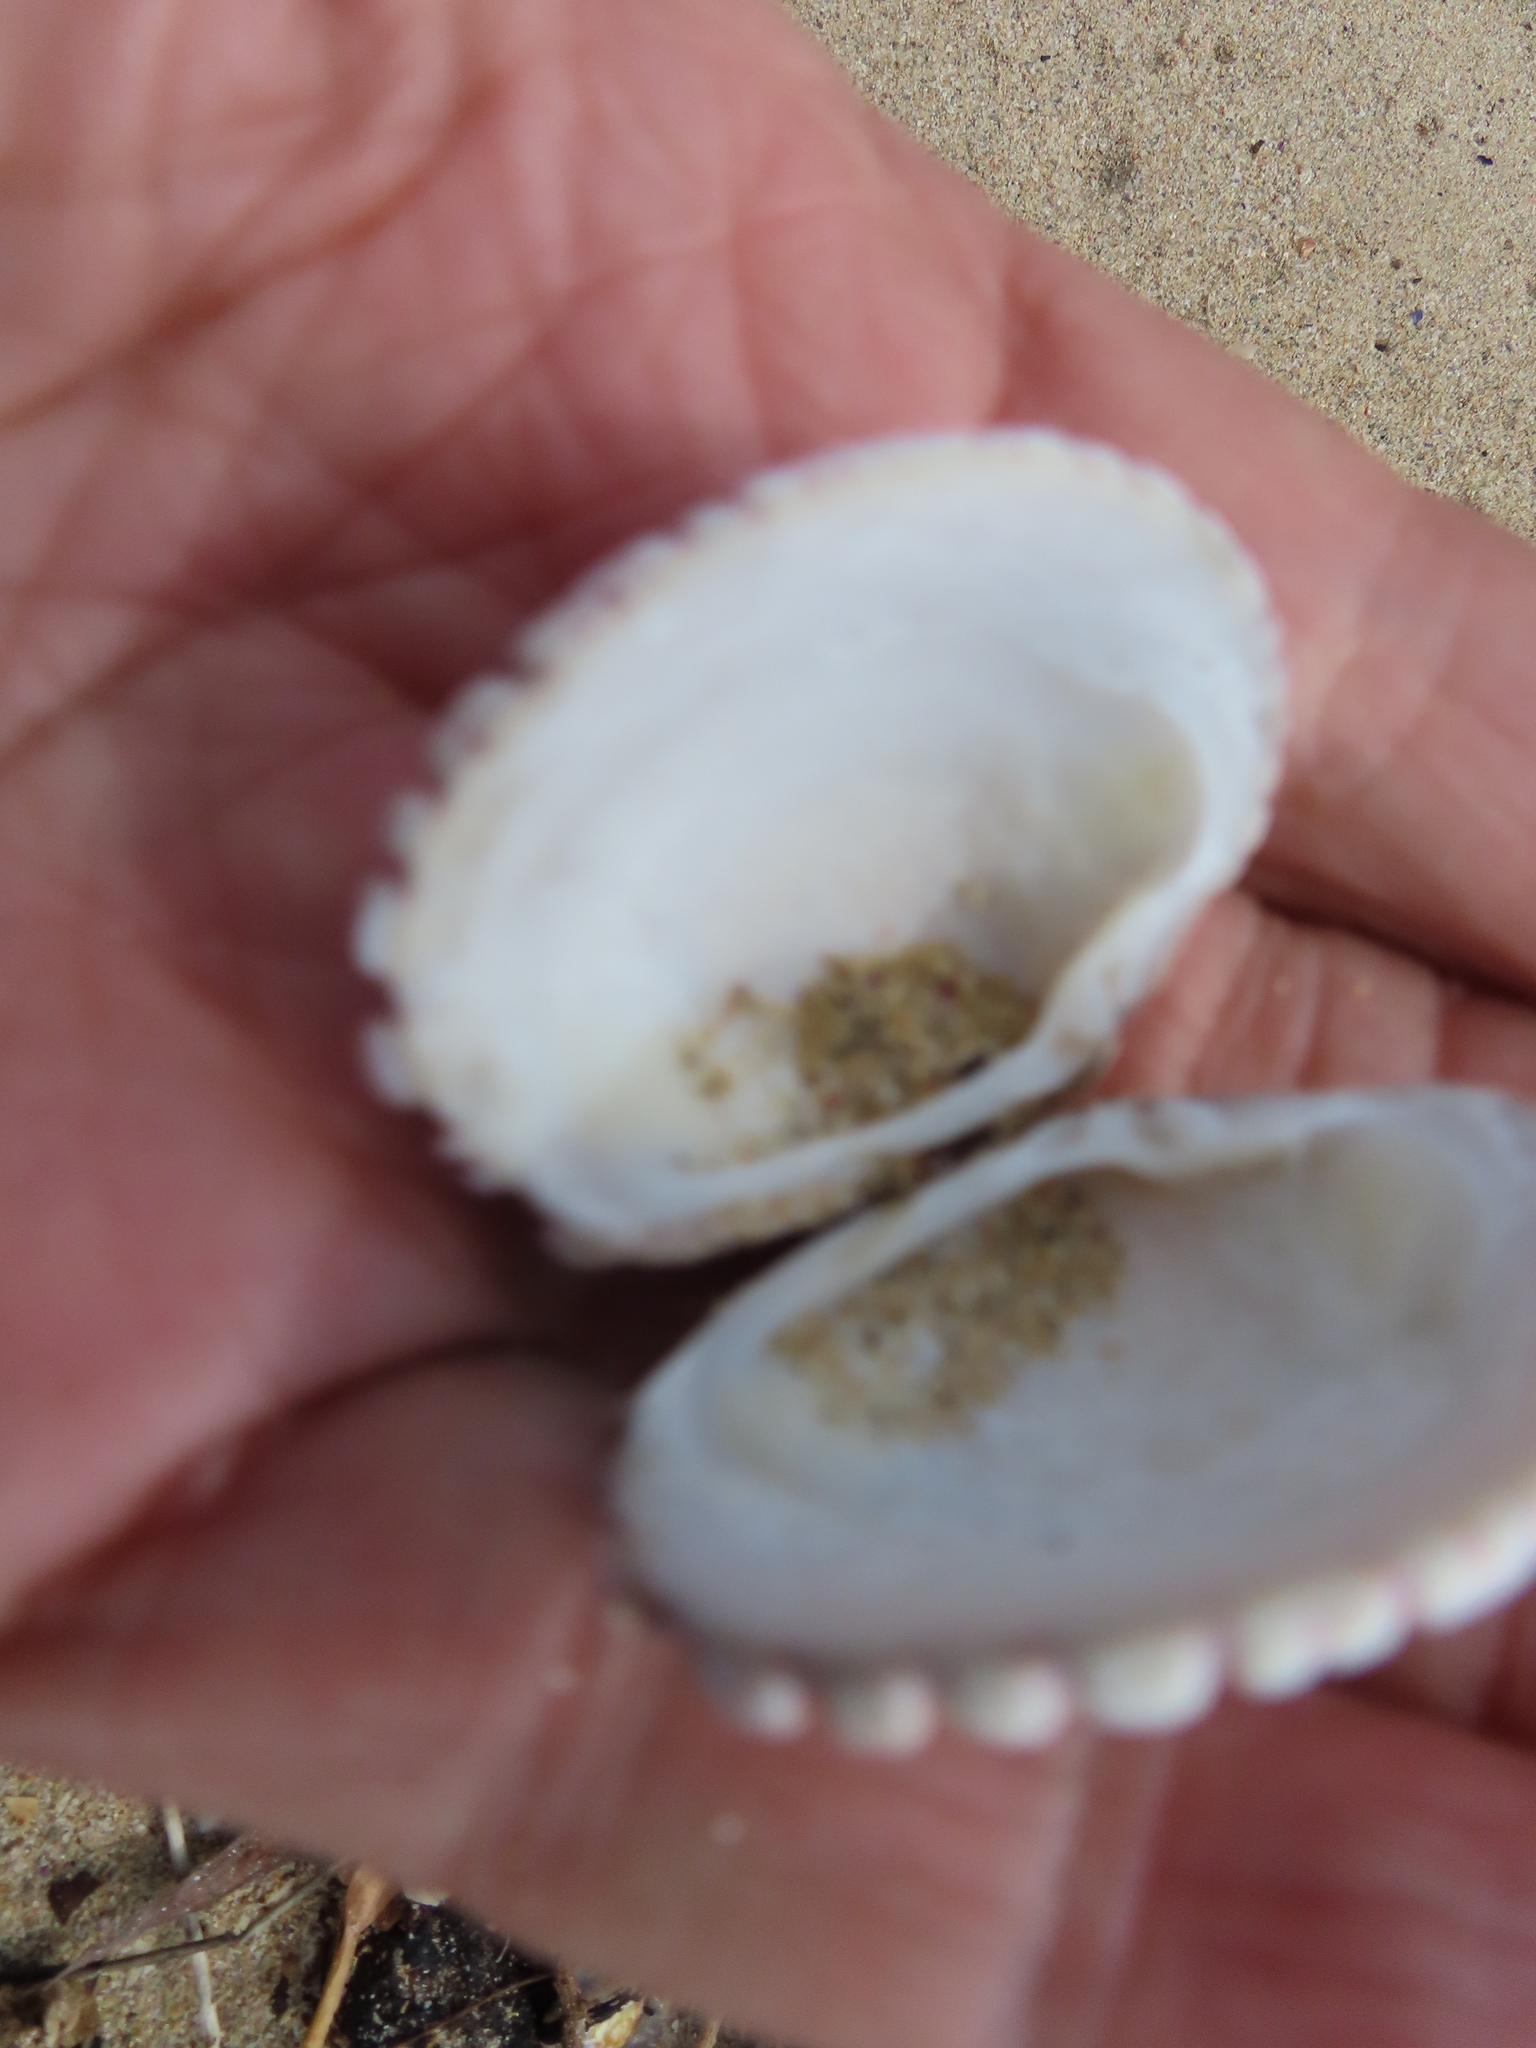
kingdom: Animalia
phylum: Mollusca
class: Bivalvia
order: Venerida
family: Veneridae
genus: Venus
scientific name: Venus verrucosa
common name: Warty venus
